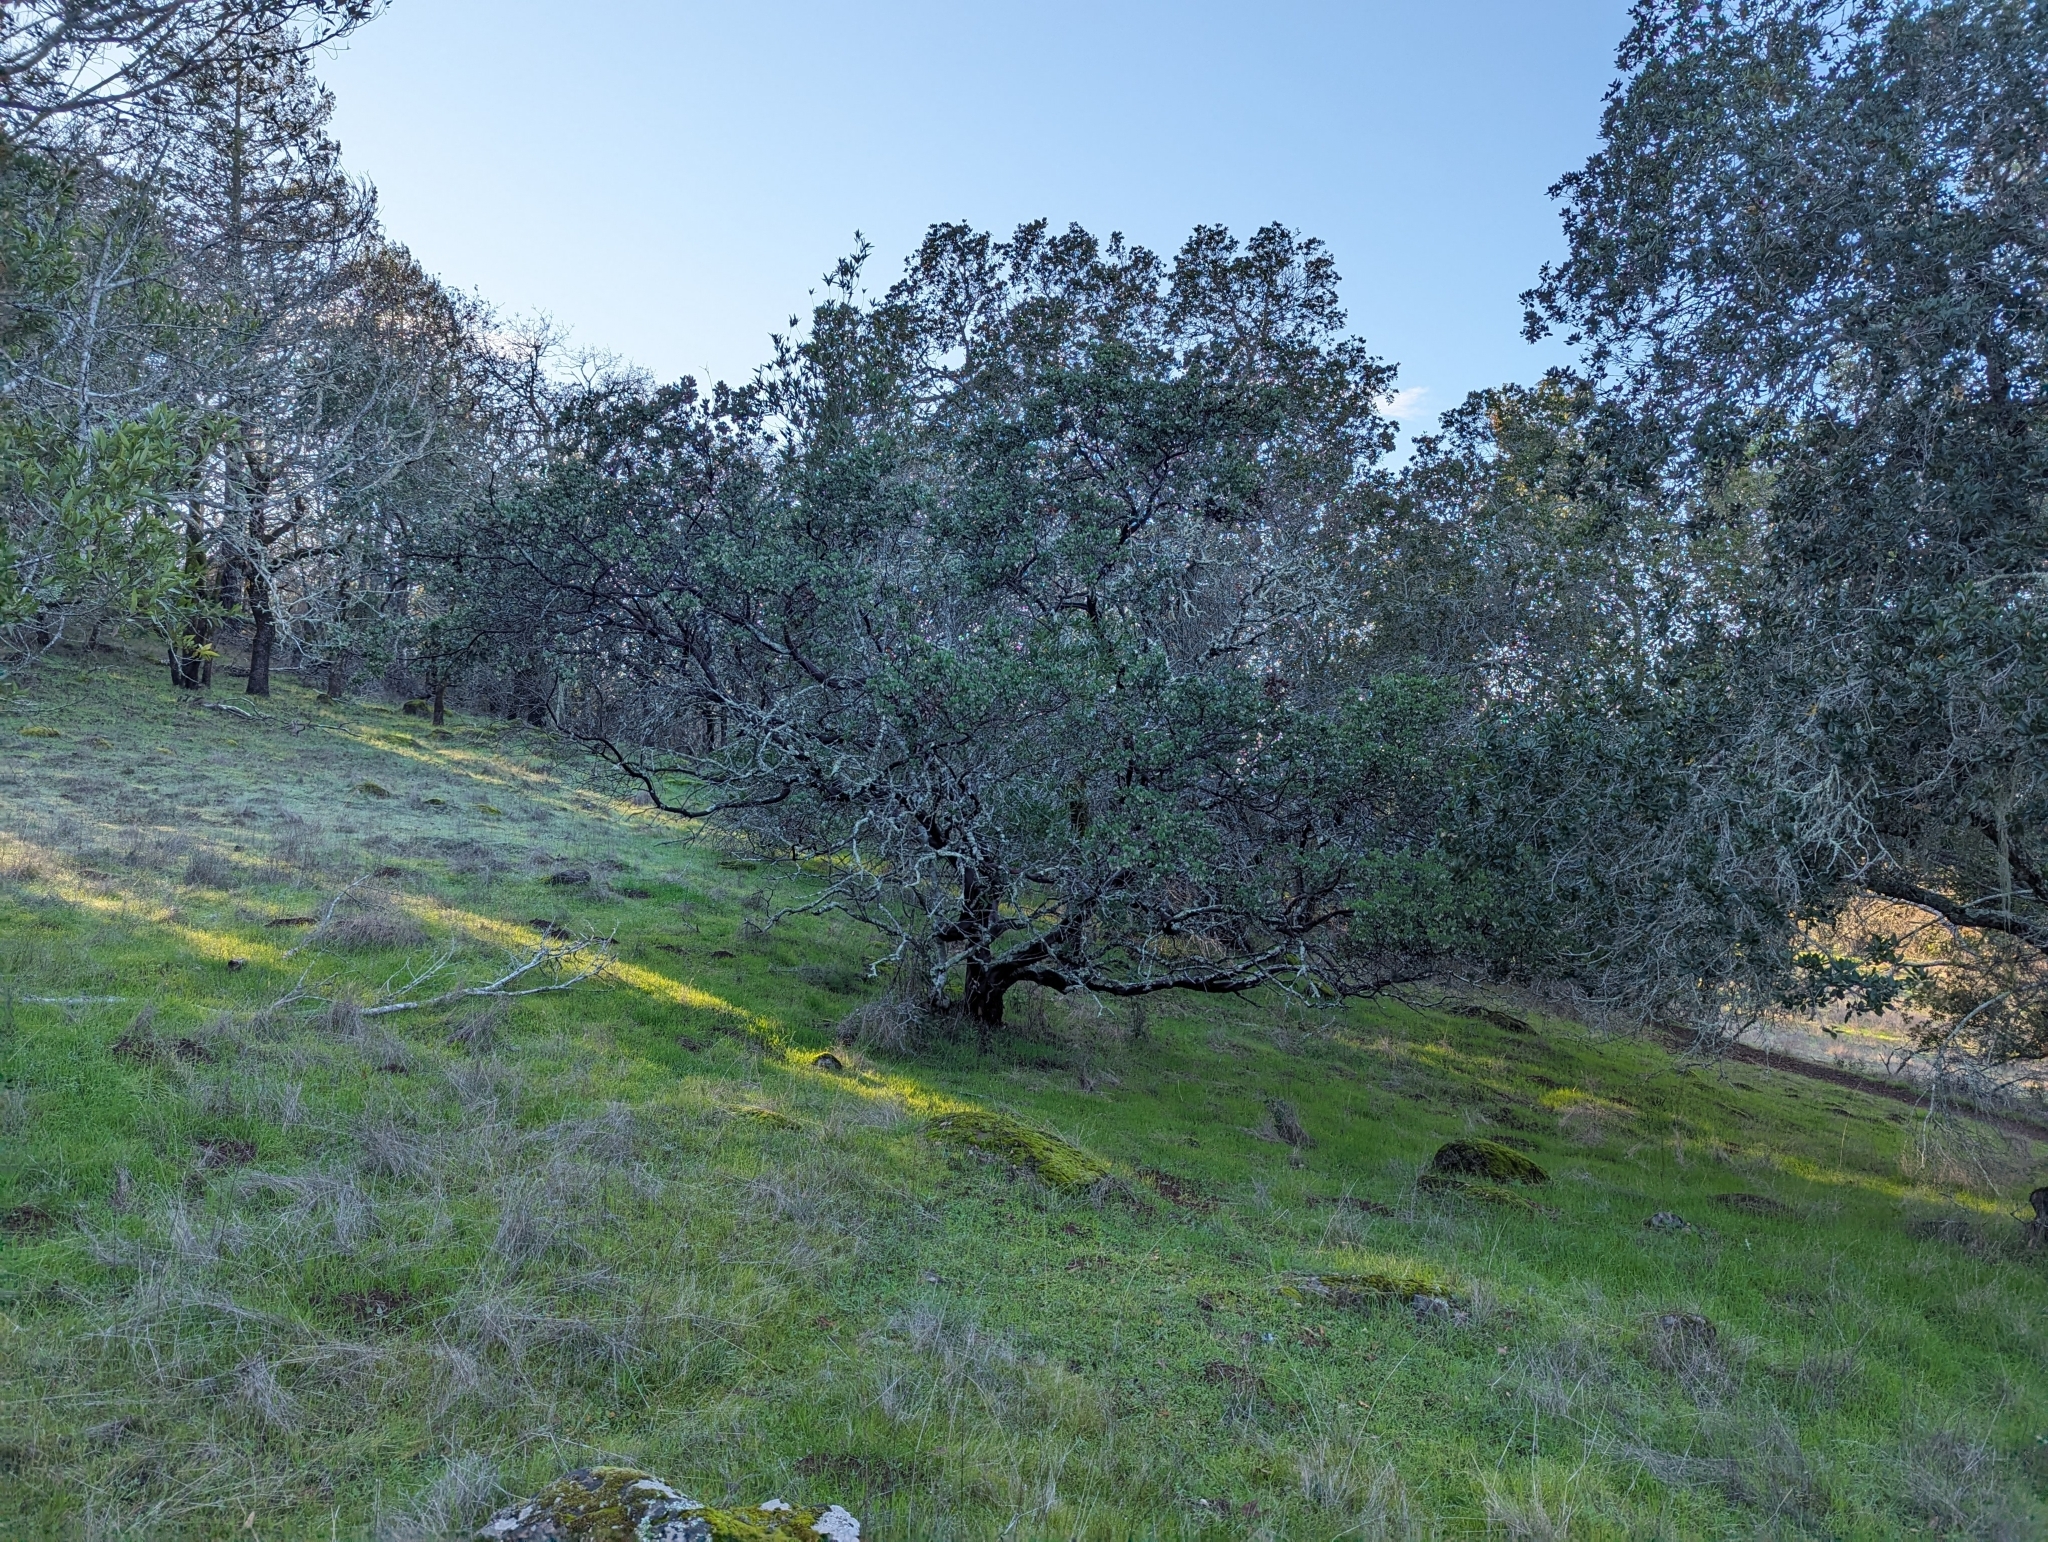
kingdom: Plantae
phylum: Tracheophyta
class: Magnoliopsida
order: Ericales
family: Ericaceae
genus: Arctostaphylos
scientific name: Arctostaphylos manzanita
